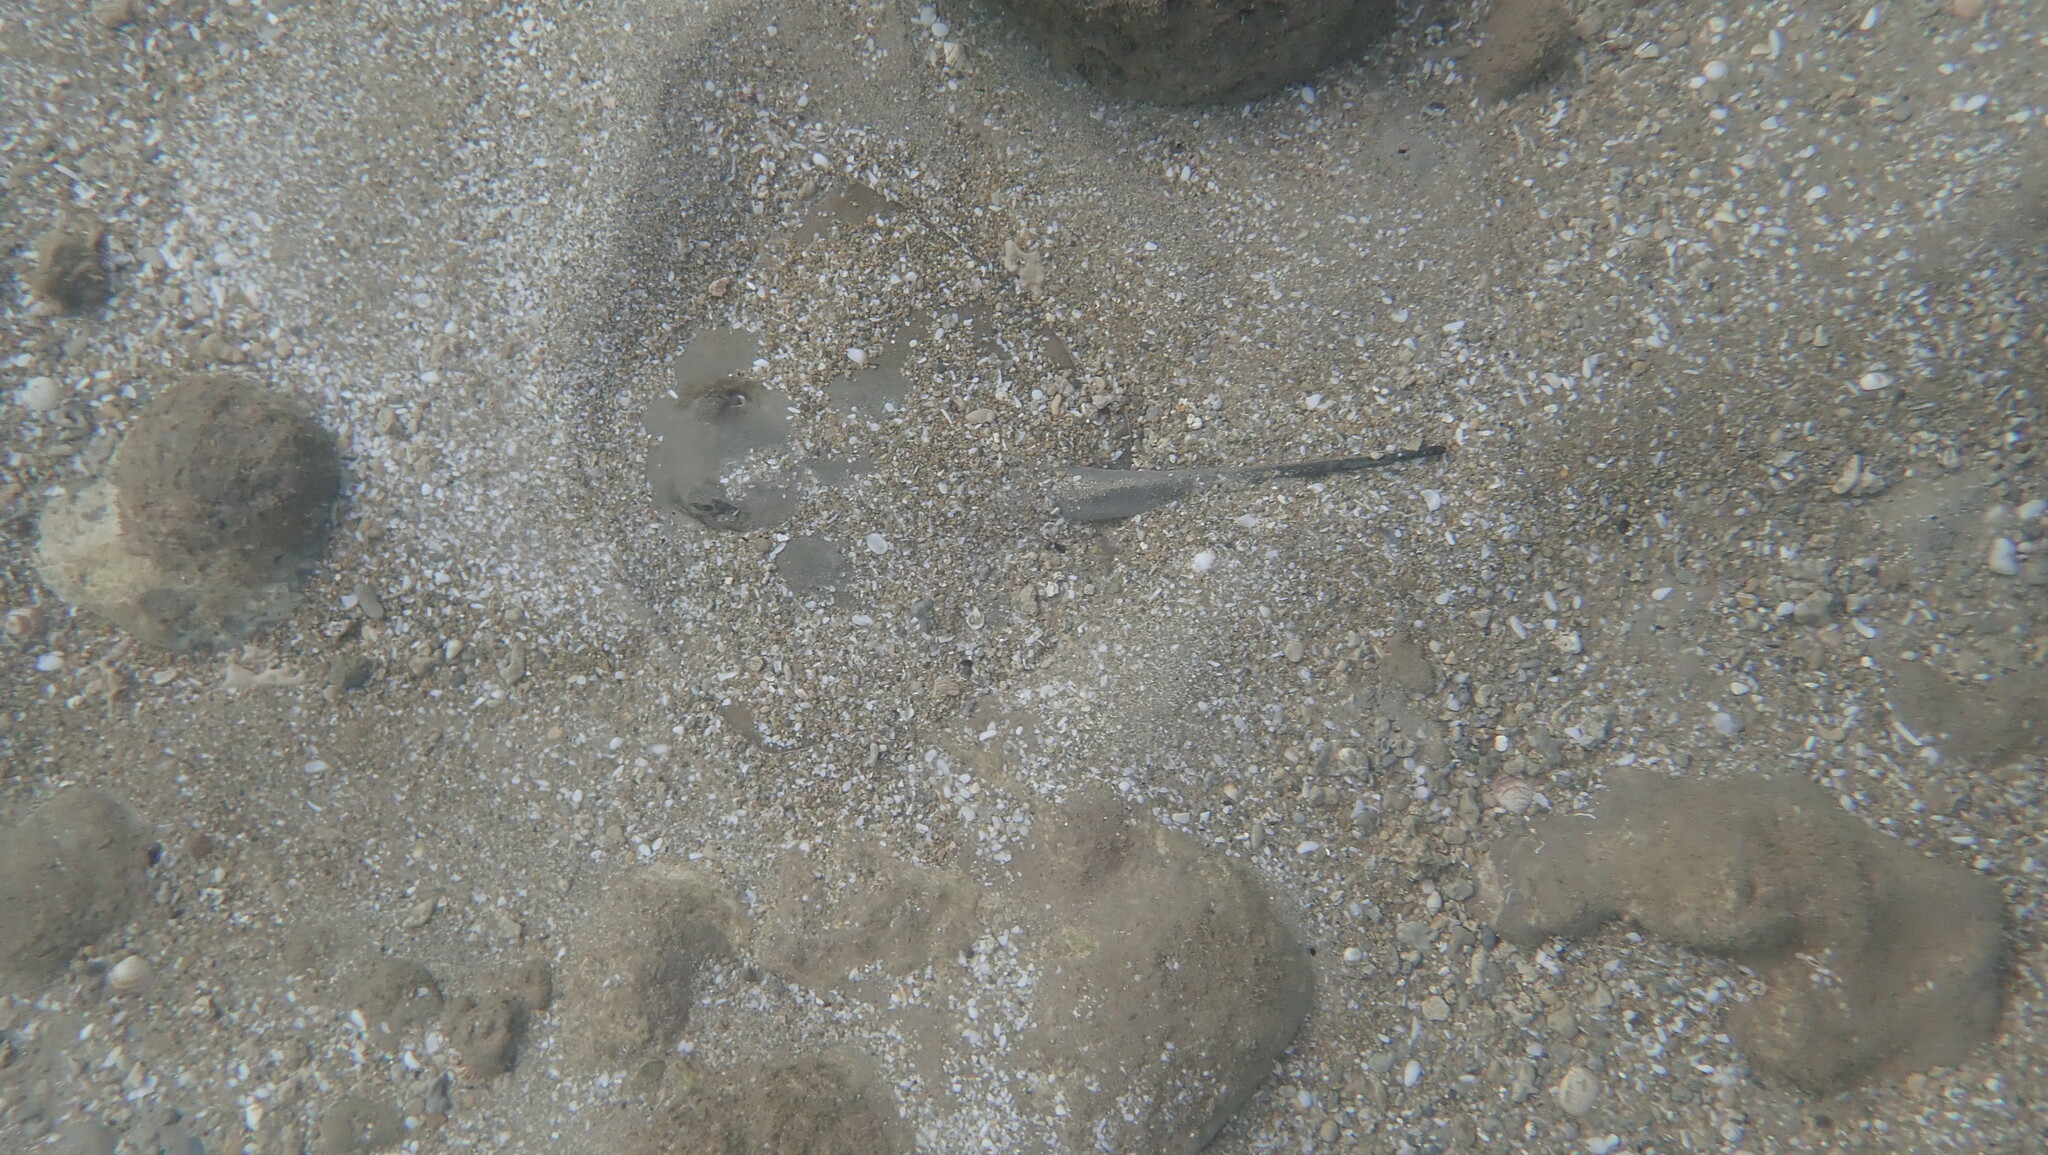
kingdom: Animalia
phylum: Chordata
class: Elasmobranchii
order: Myliobatiformes
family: Dasyatidae
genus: Dasyatis
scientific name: Dasyatis pastinaca
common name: Common stingray
